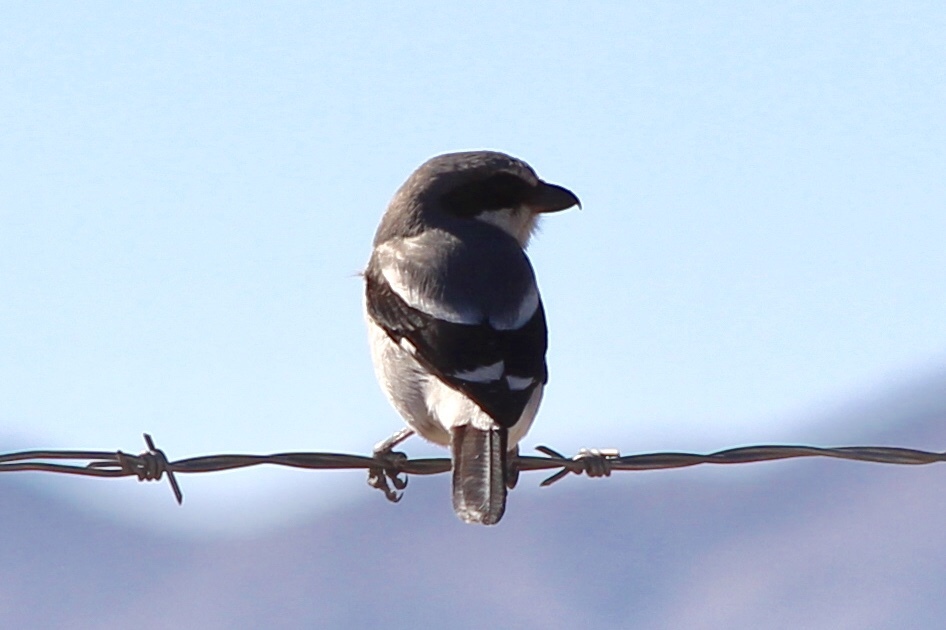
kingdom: Animalia
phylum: Chordata
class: Aves
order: Passeriformes
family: Laniidae
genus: Lanius
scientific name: Lanius ludovicianus
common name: Loggerhead shrike
